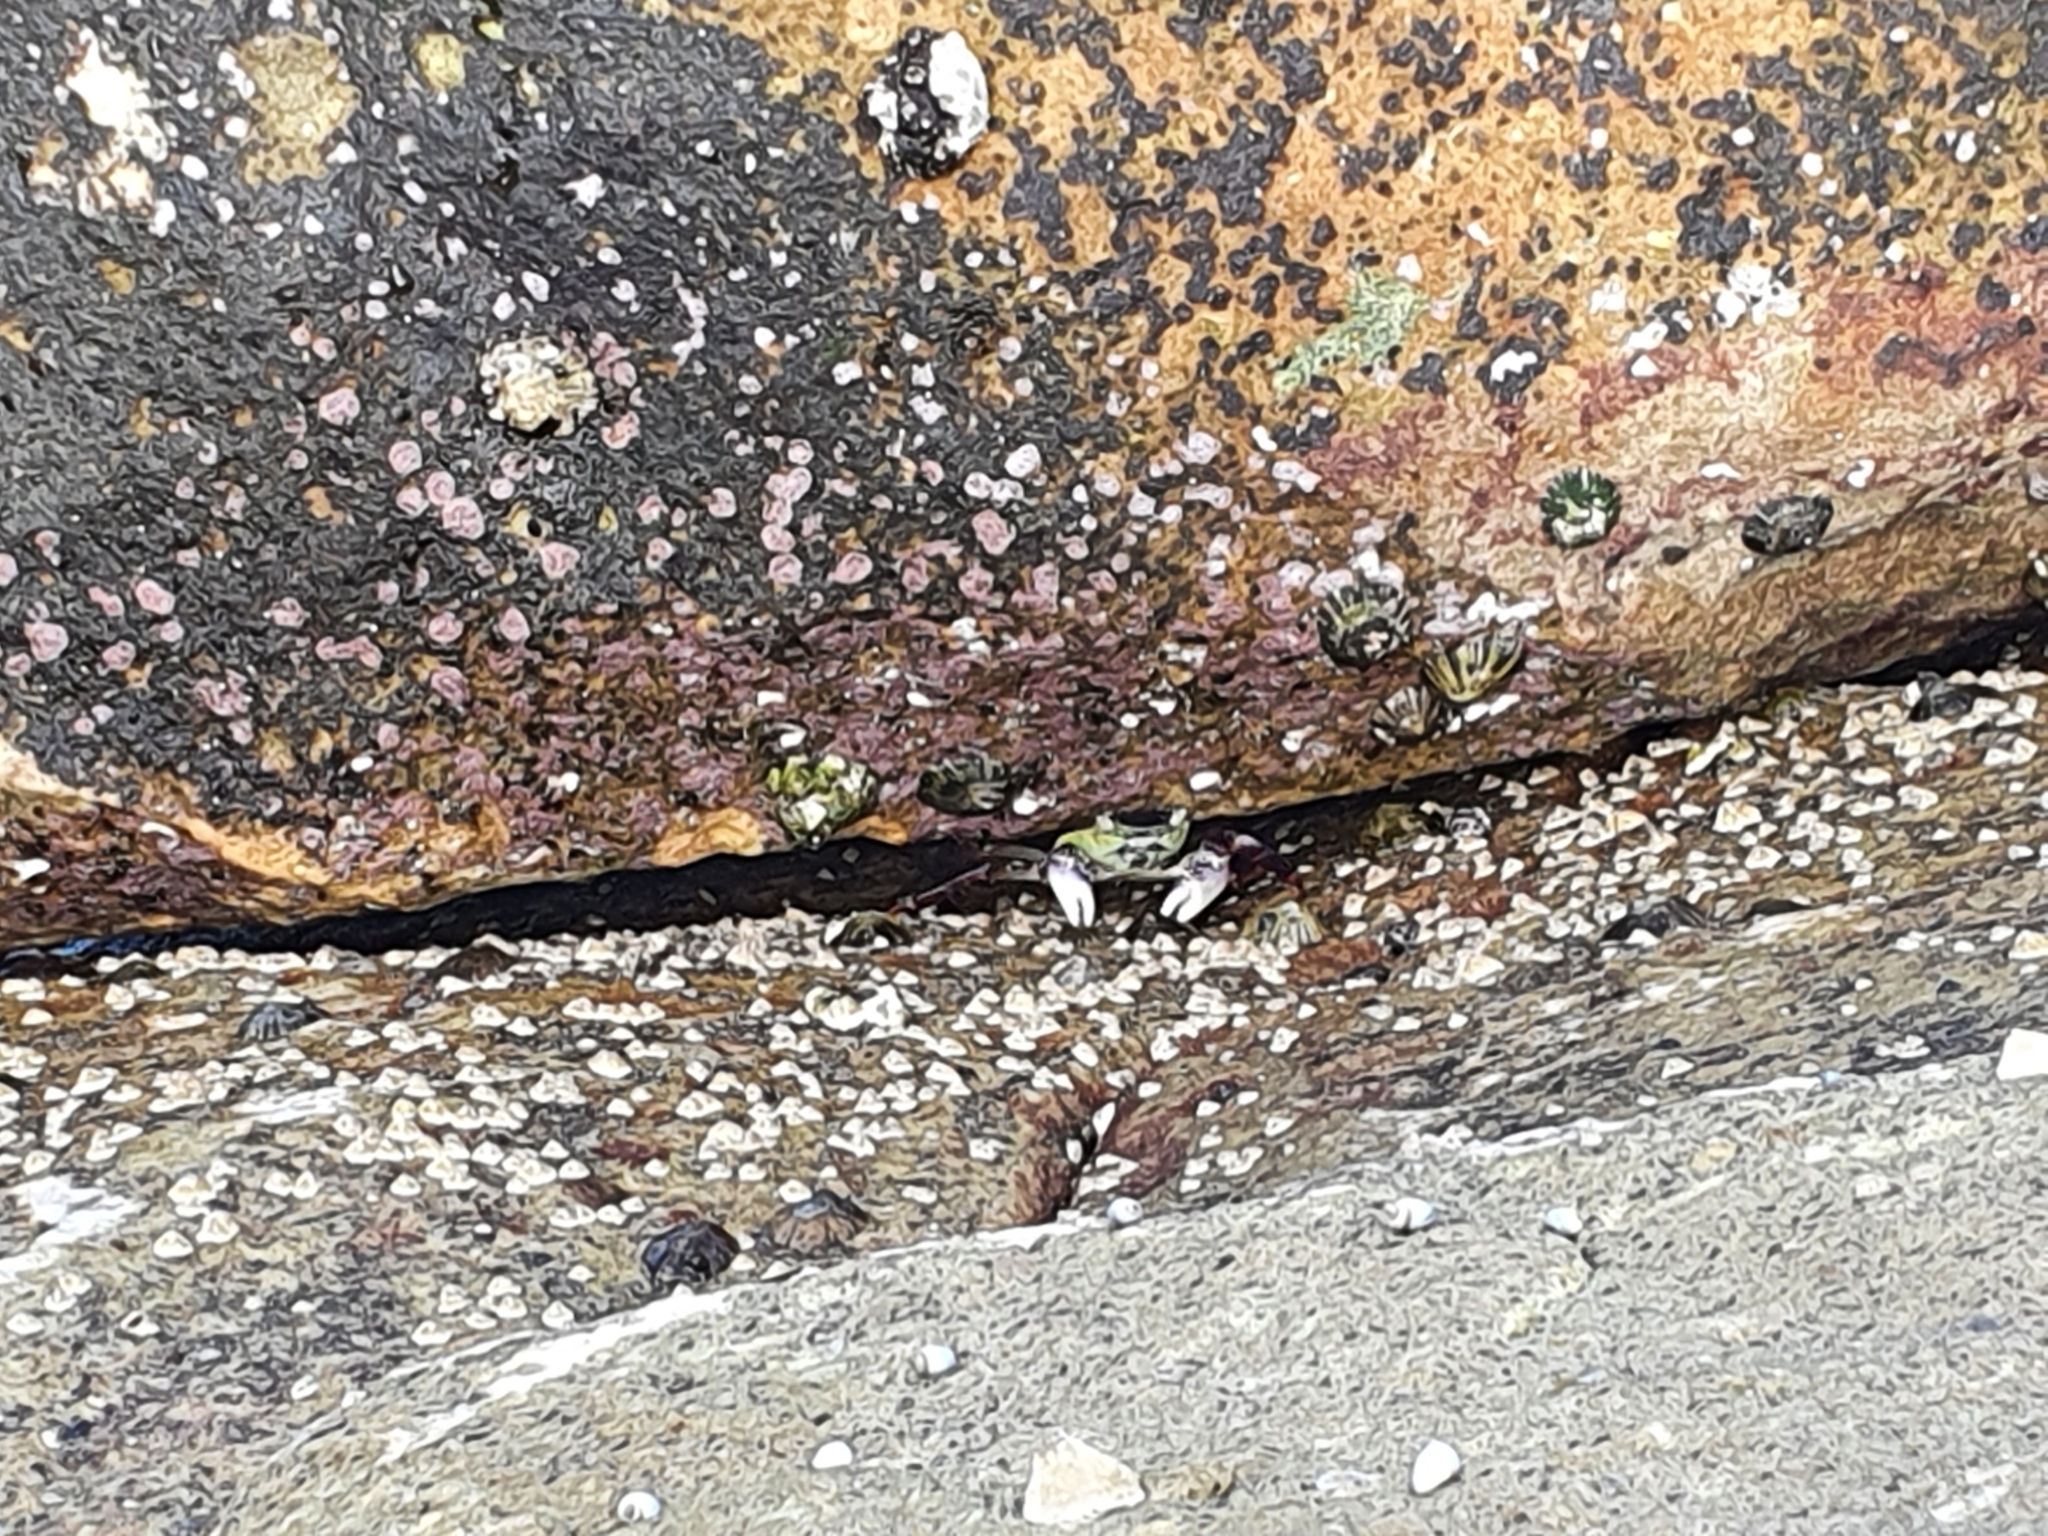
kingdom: Animalia
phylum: Arthropoda
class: Malacostraca
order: Decapoda
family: Grapsidae
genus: Leptograpsus
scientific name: Leptograpsus variegatus
